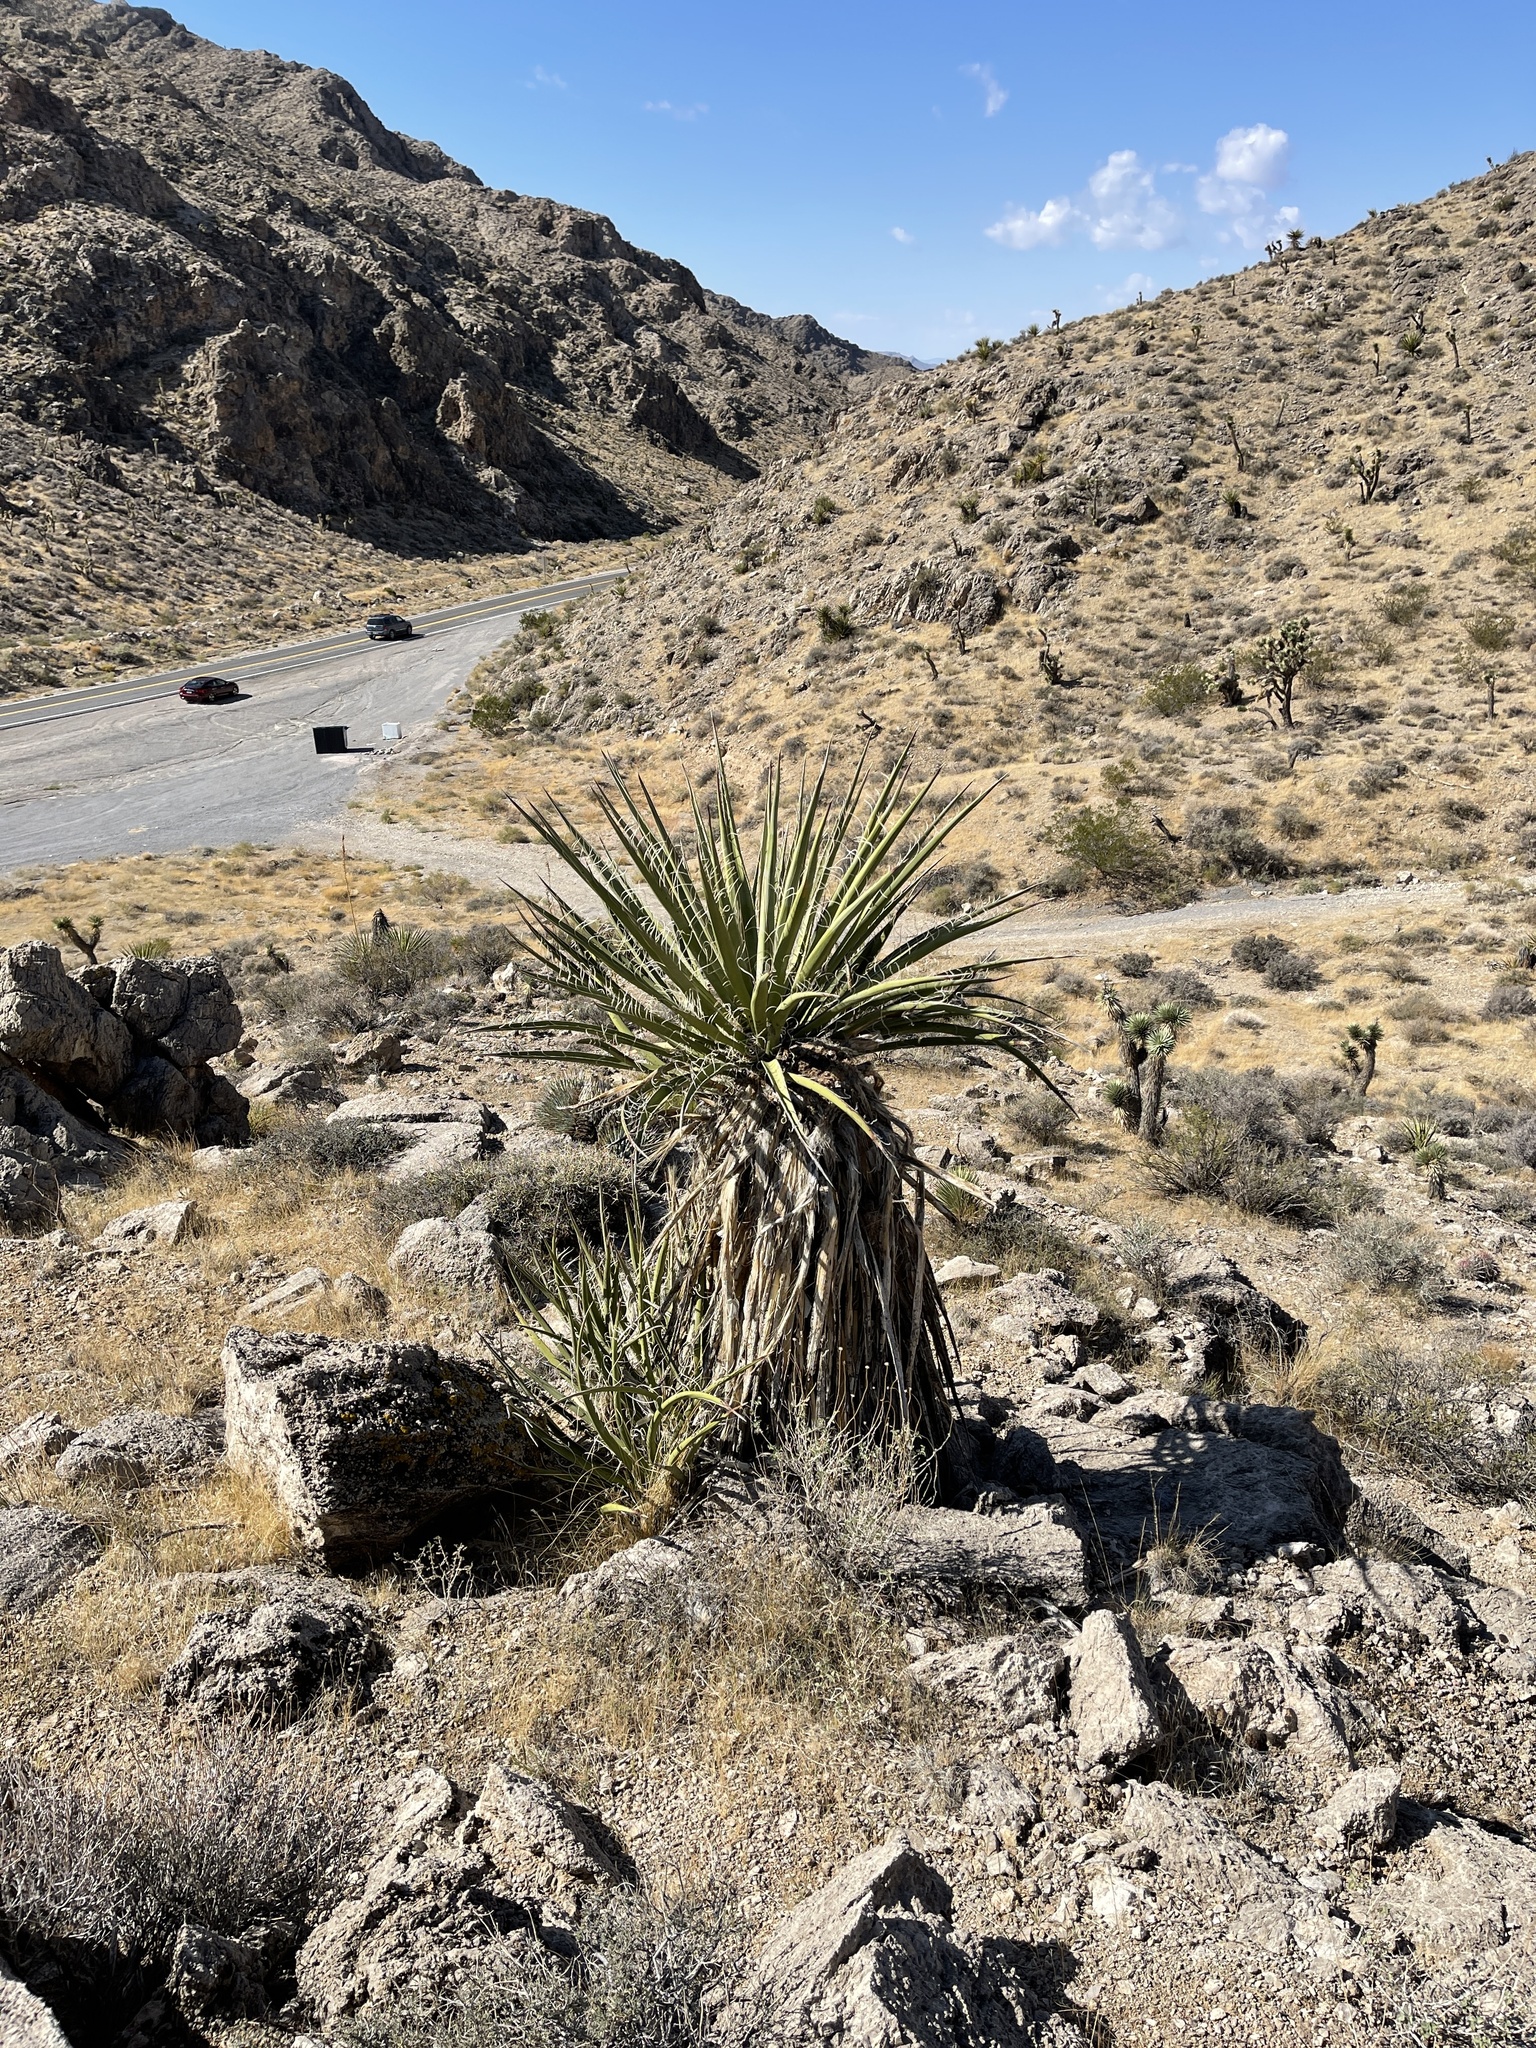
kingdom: Plantae
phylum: Tracheophyta
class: Liliopsida
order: Asparagales
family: Asparagaceae
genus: Yucca
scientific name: Yucca schidigera
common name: Mojave yucca
